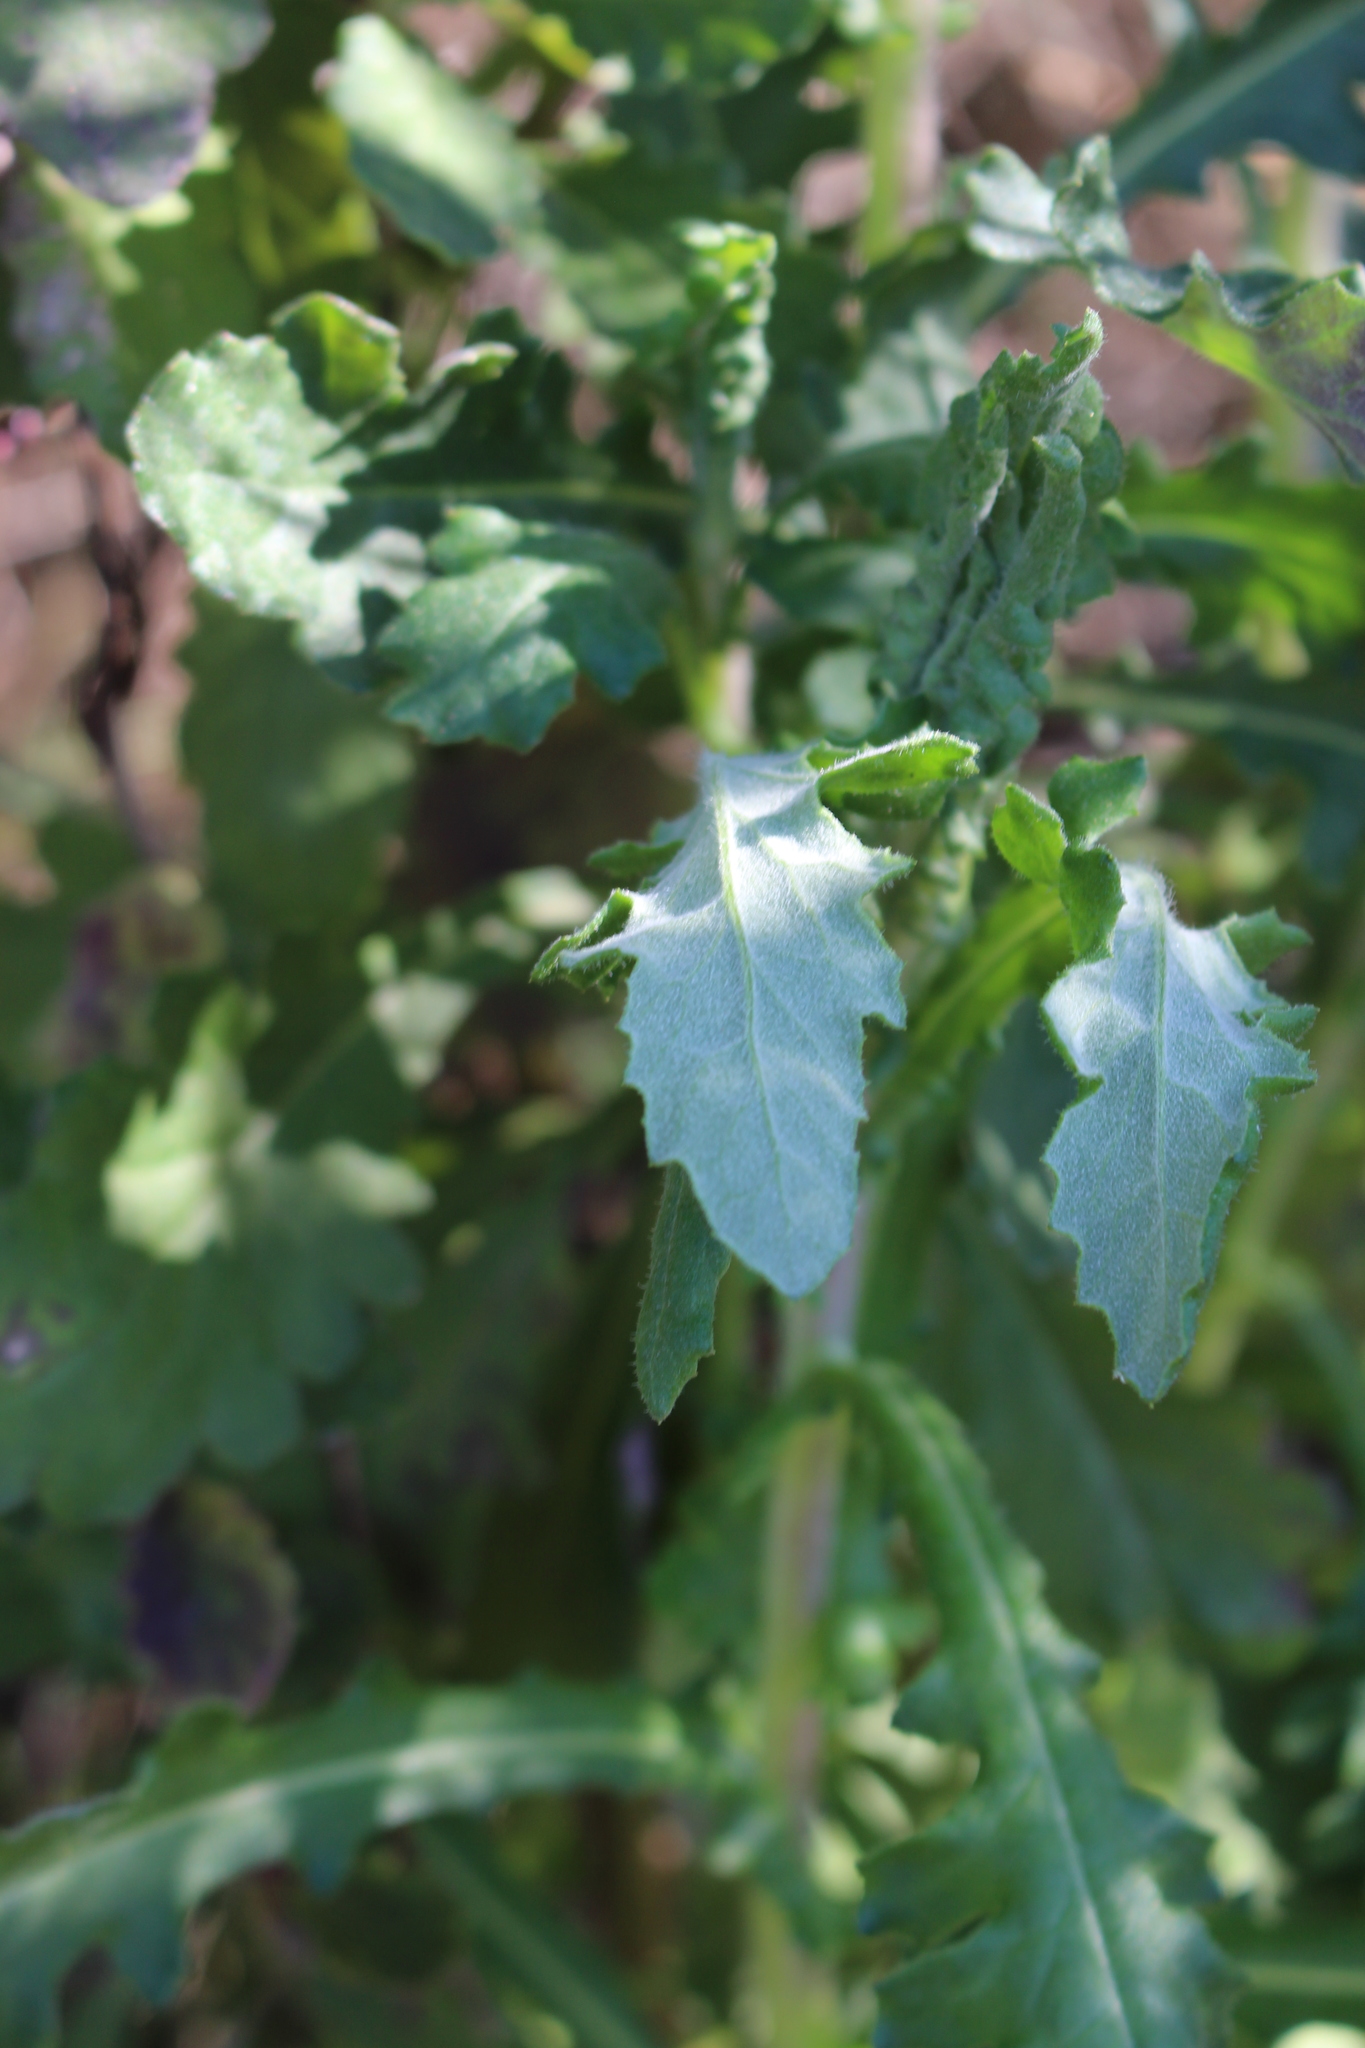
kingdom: Plantae
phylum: Tracheophyta
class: Magnoliopsida
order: Asterales
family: Asteraceae
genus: Senecio
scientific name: Senecio glomeratus
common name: Cutleaf burnweed
